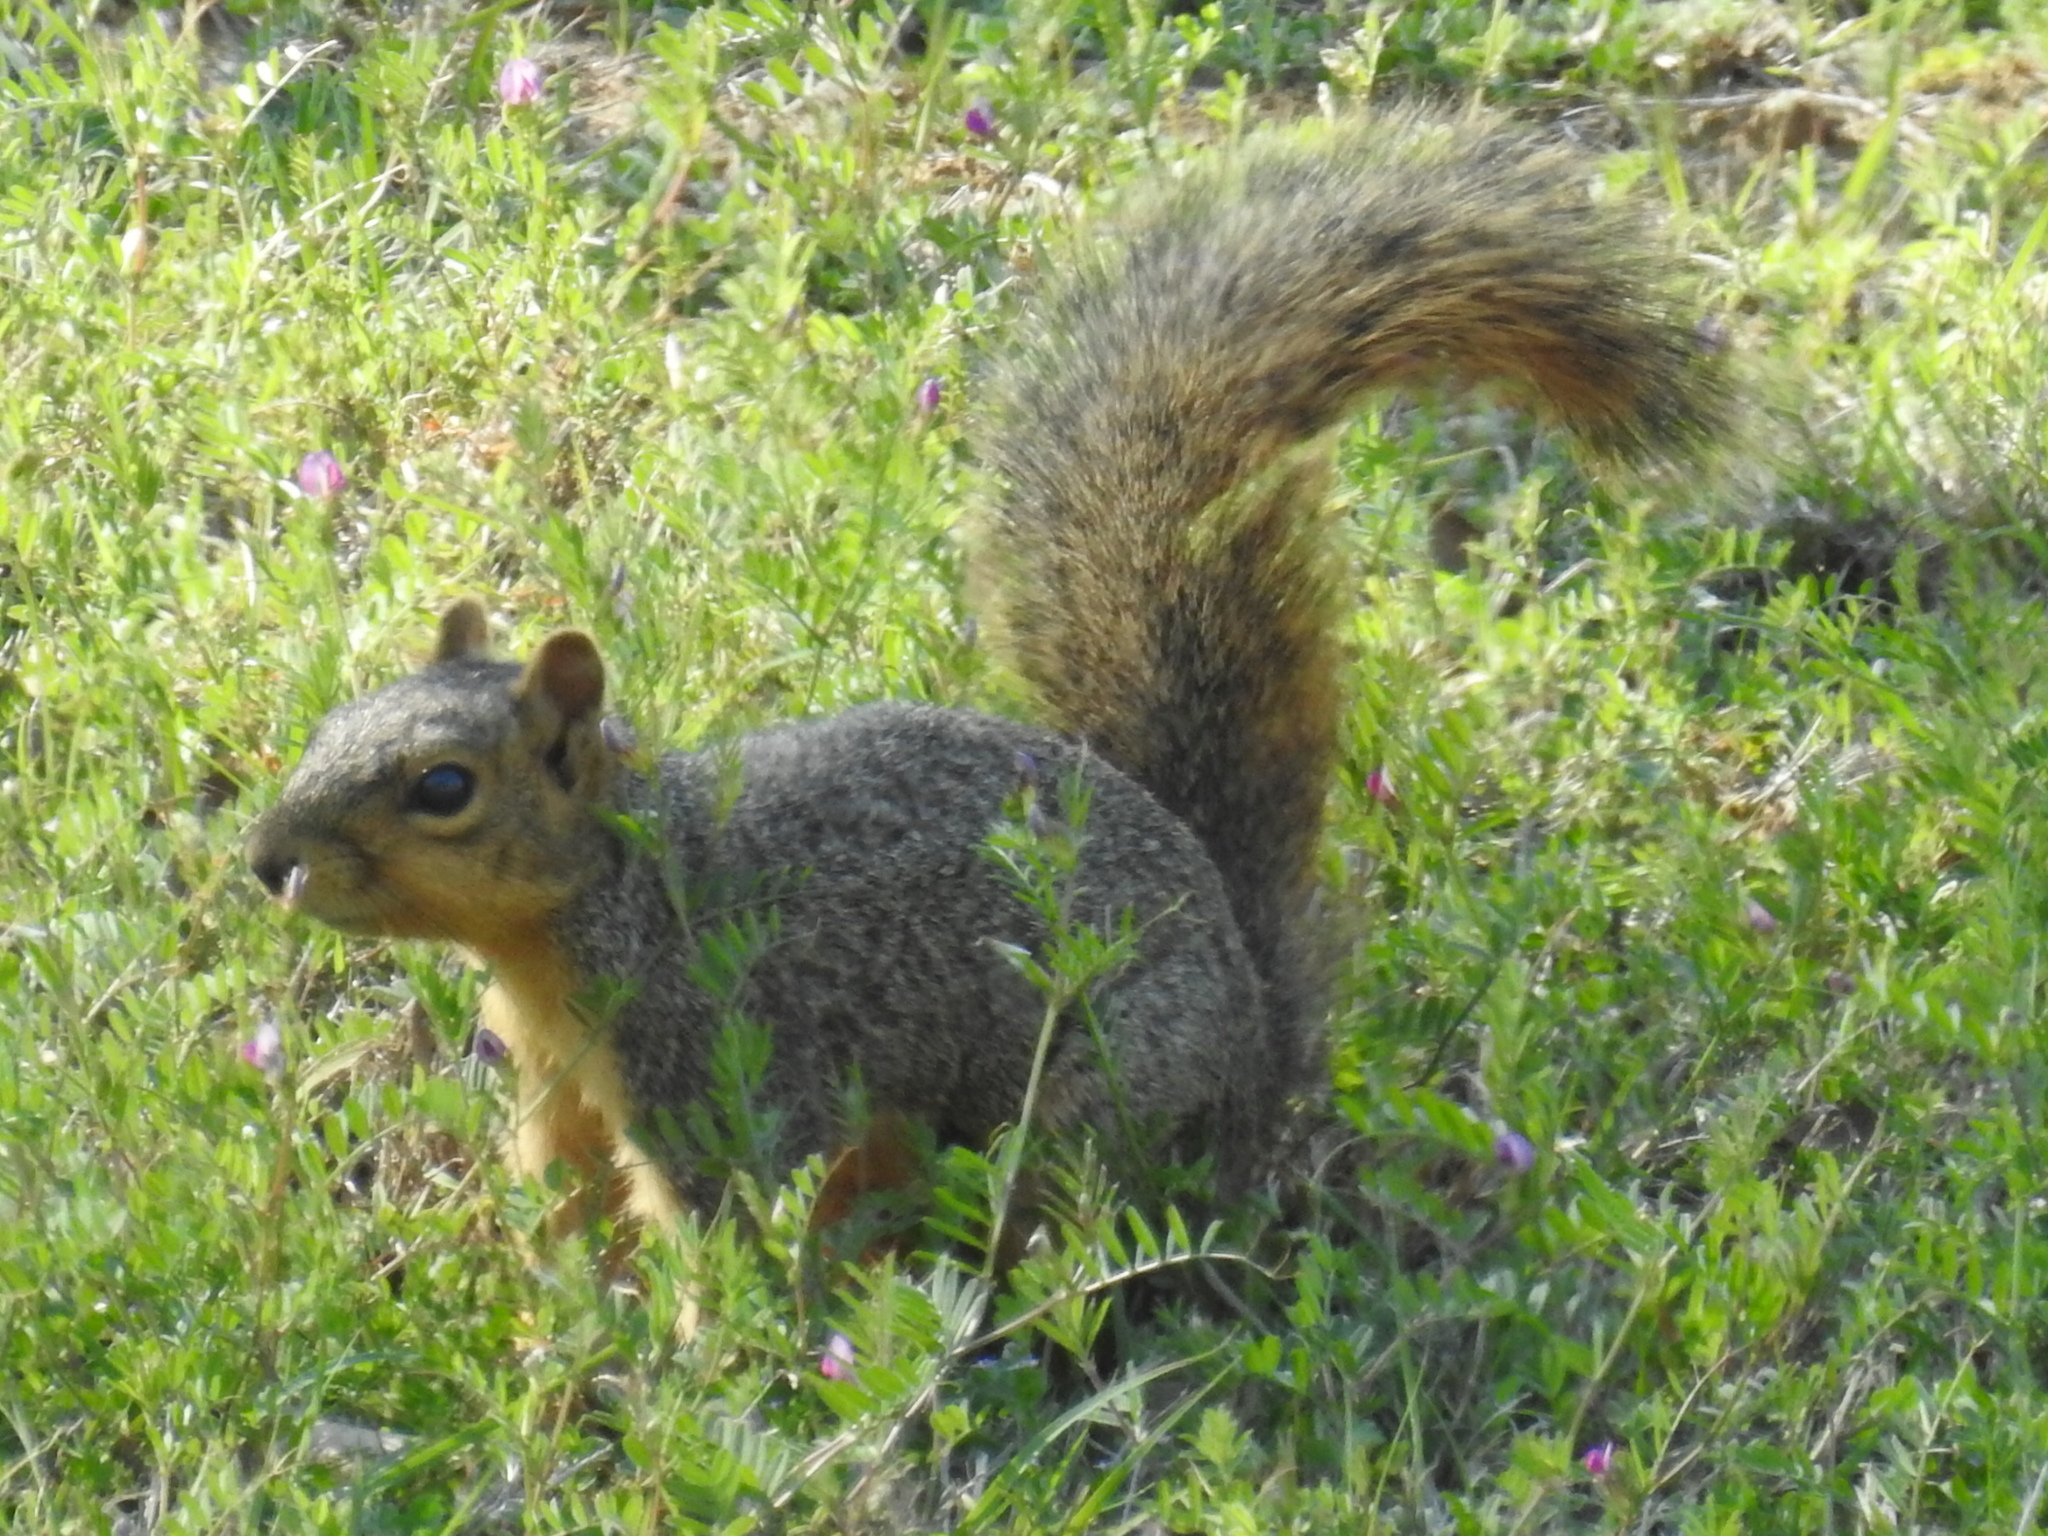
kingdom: Animalia
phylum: Chordata
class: Mammalia
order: Rodentia
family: Sciuridae
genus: Sciurus
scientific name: Sciurus niger
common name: Fox squirrel
